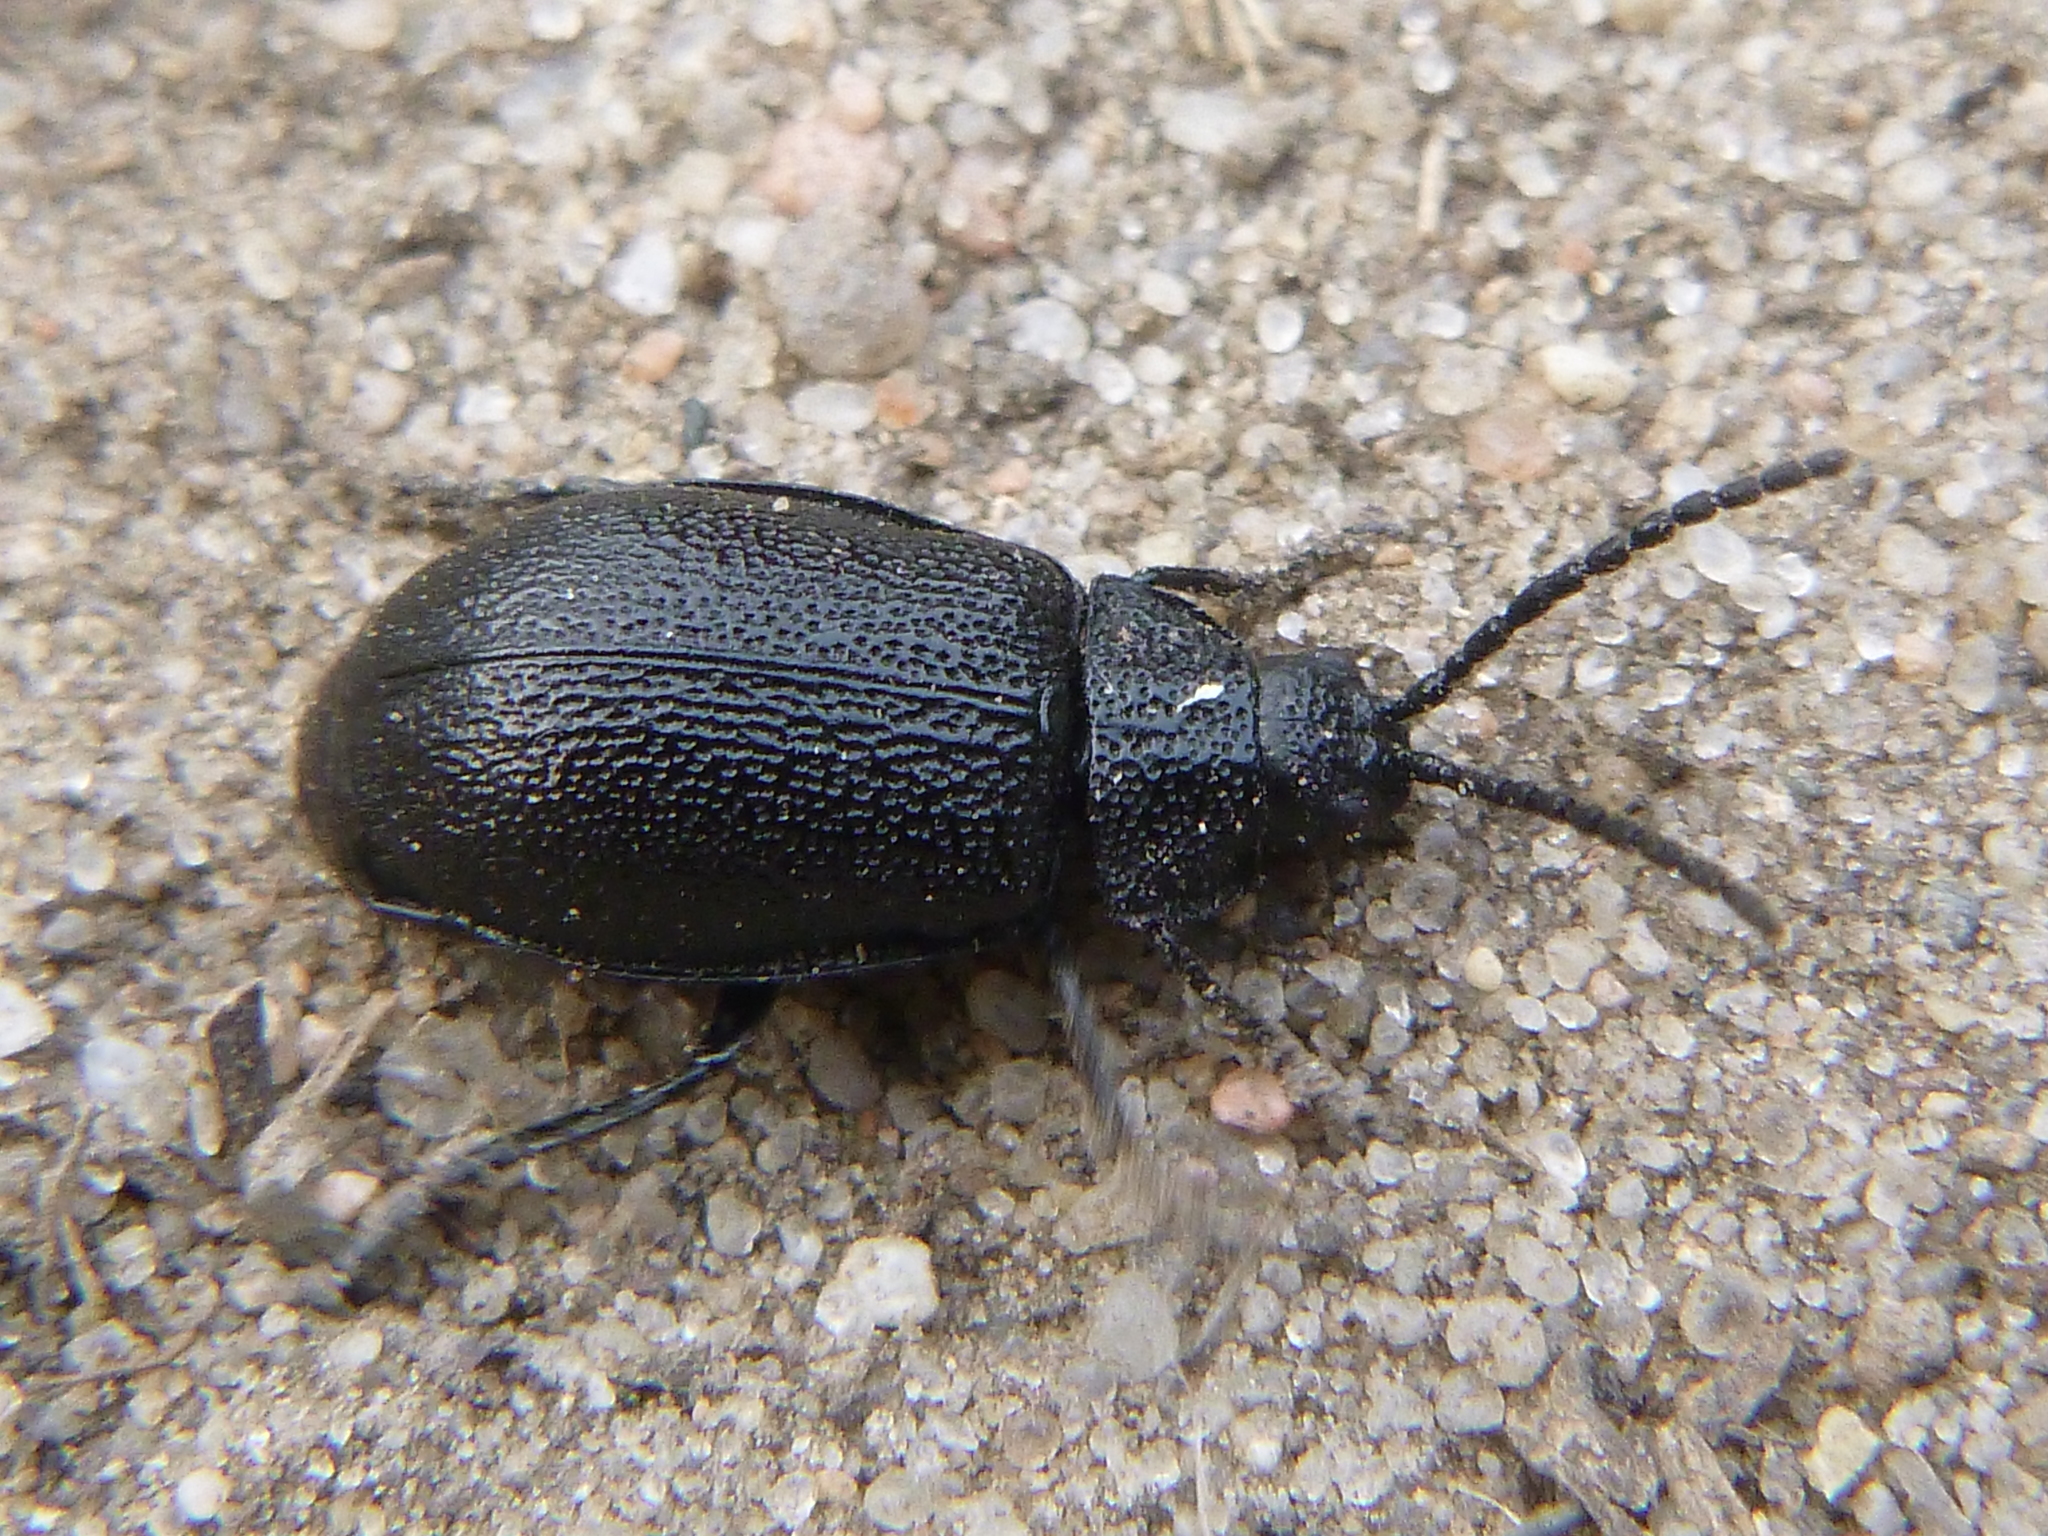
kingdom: Animalia
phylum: Arthropoda
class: Insecta
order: Coleoptera
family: Chrysomelidae
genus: Galeruca
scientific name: Galeruca tanaceti
